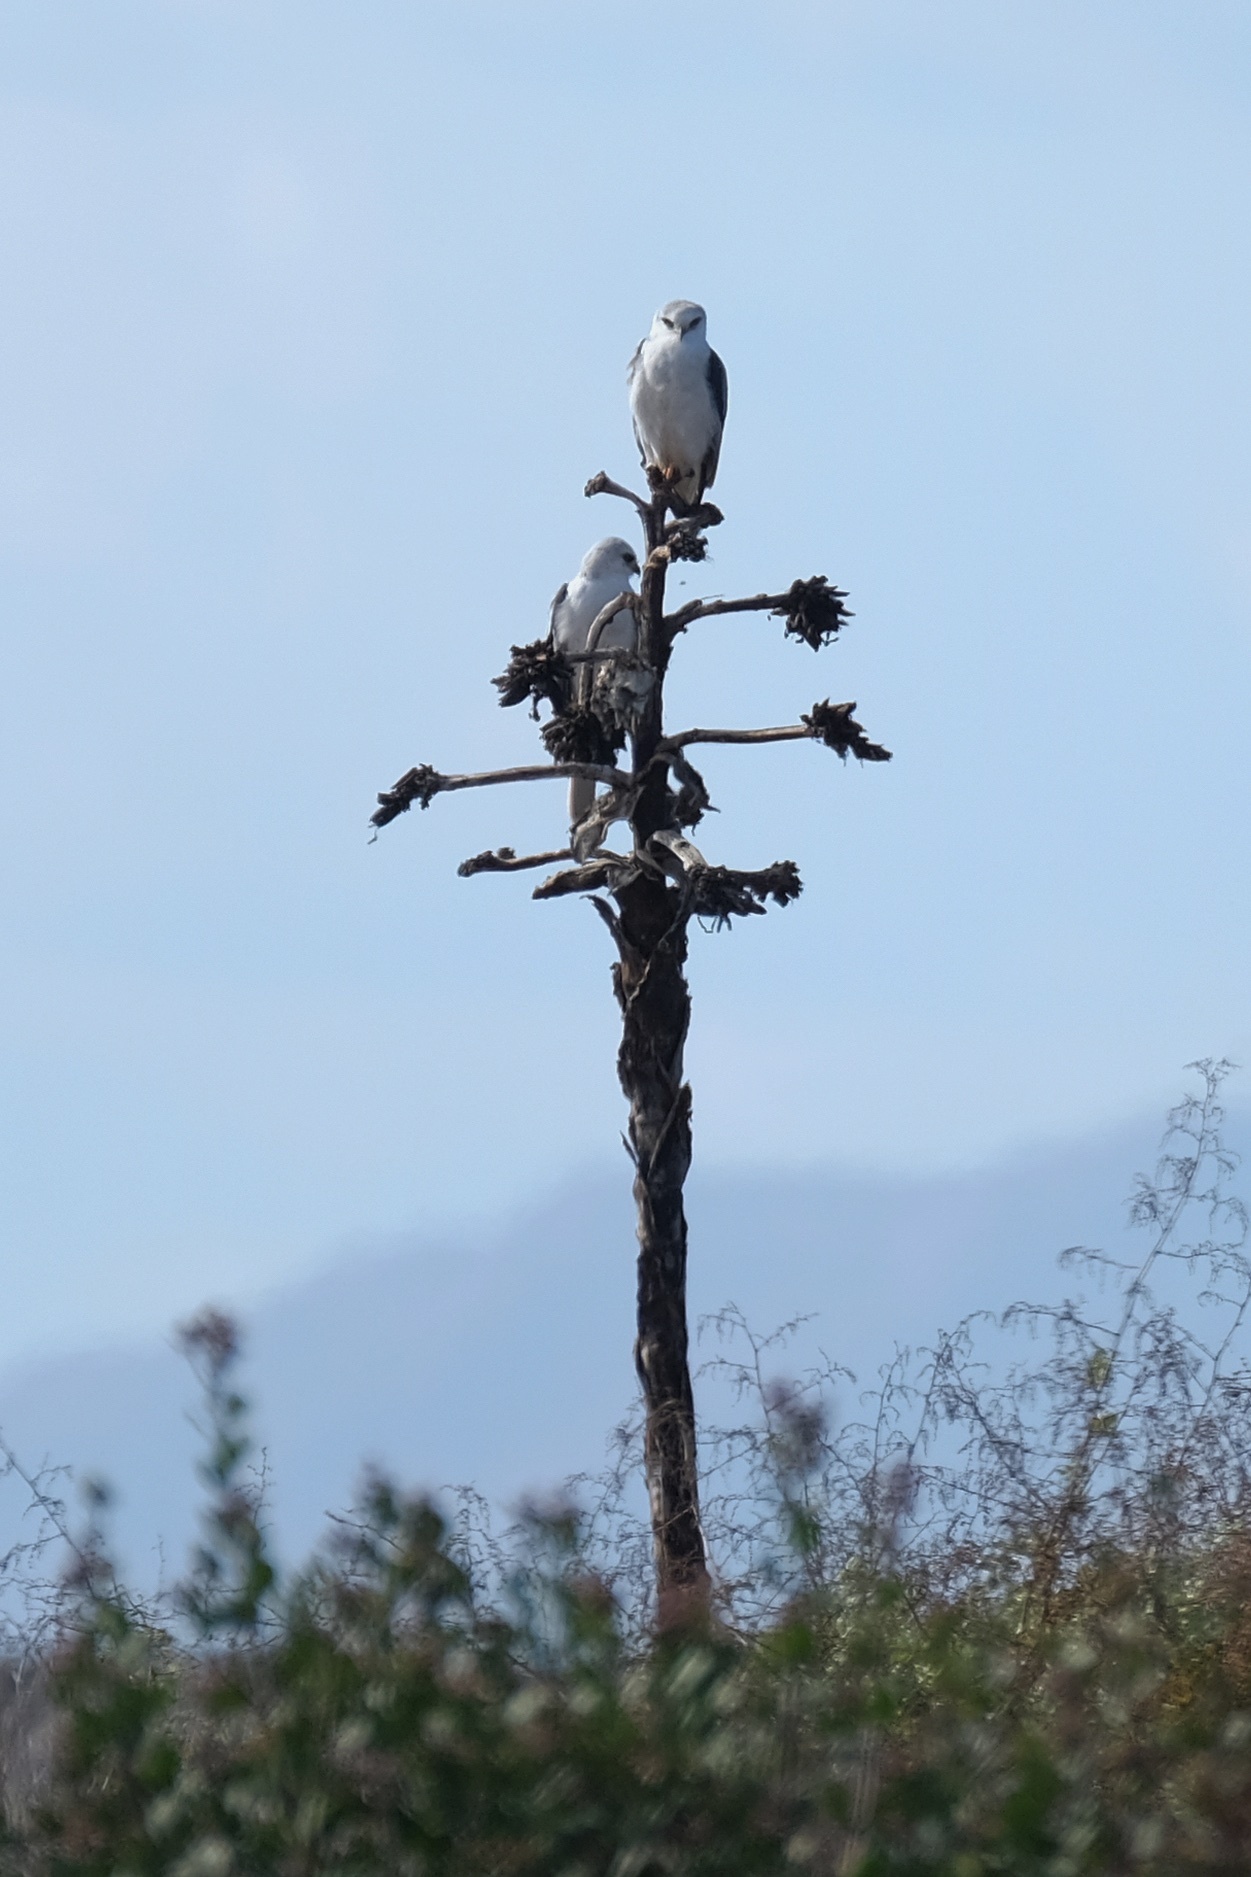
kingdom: Animalia
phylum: Chordata
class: Aves
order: Accipitriformes
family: Accipitridae
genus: Elanus
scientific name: Elanus leucurus
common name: White-tailed kite
